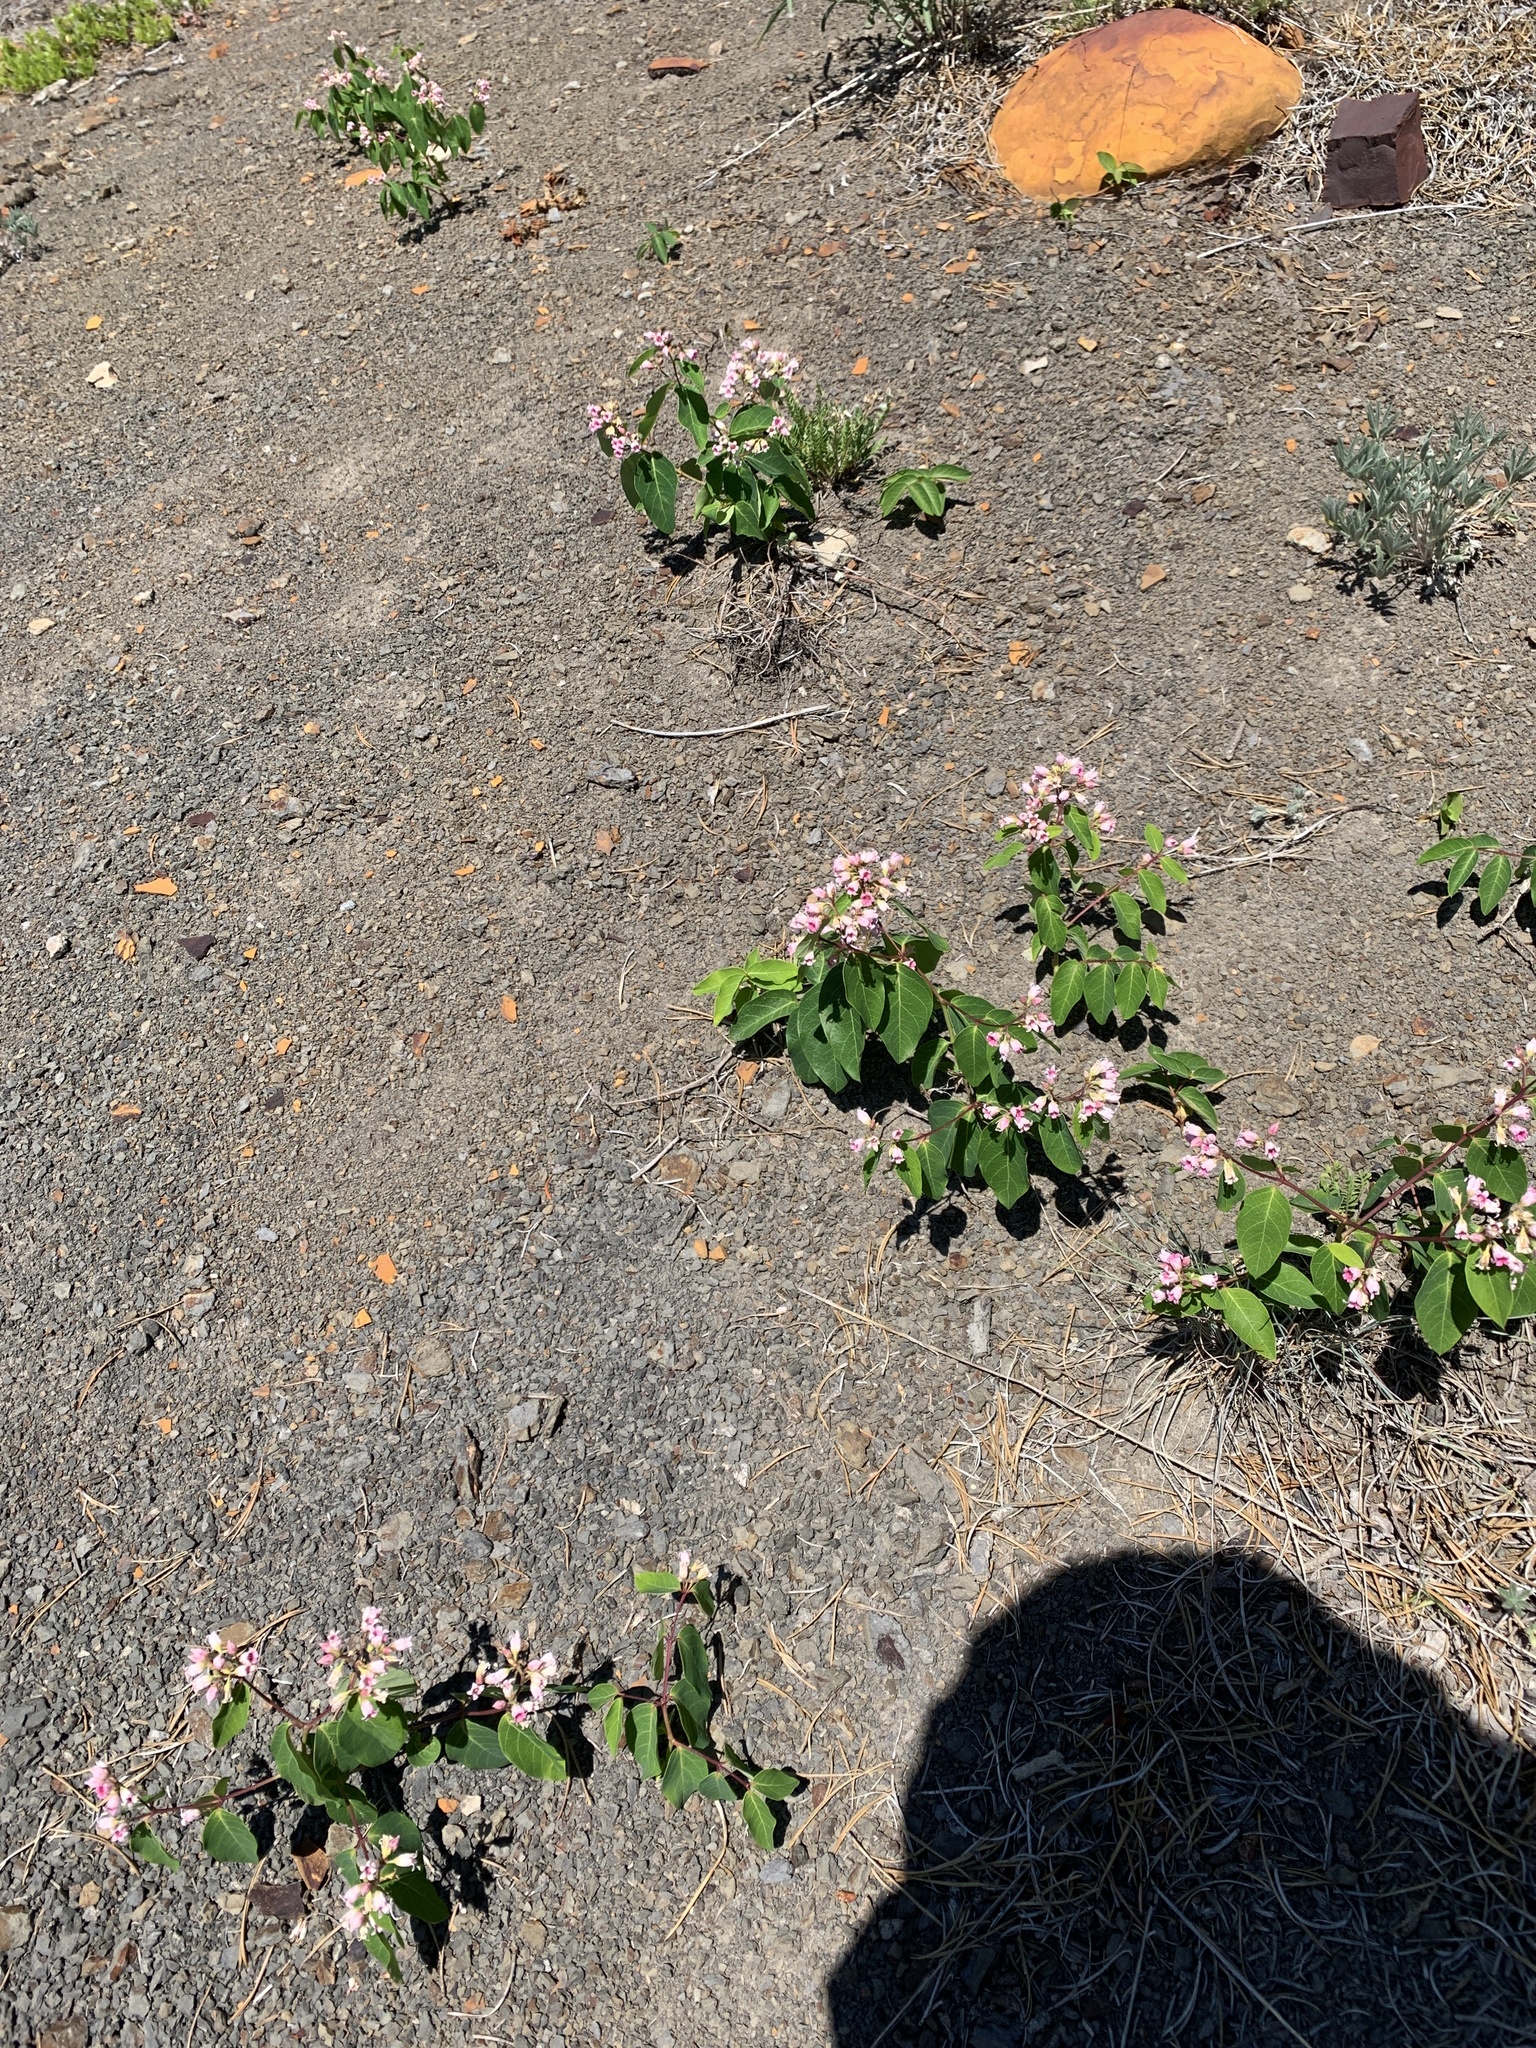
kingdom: Plantae
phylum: Tracheophyta
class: Magnoliopsida
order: Gentianales
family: Apocynaceae
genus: Apocynum
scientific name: Apocynum androsaemifolium
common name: Spreading dogbane
